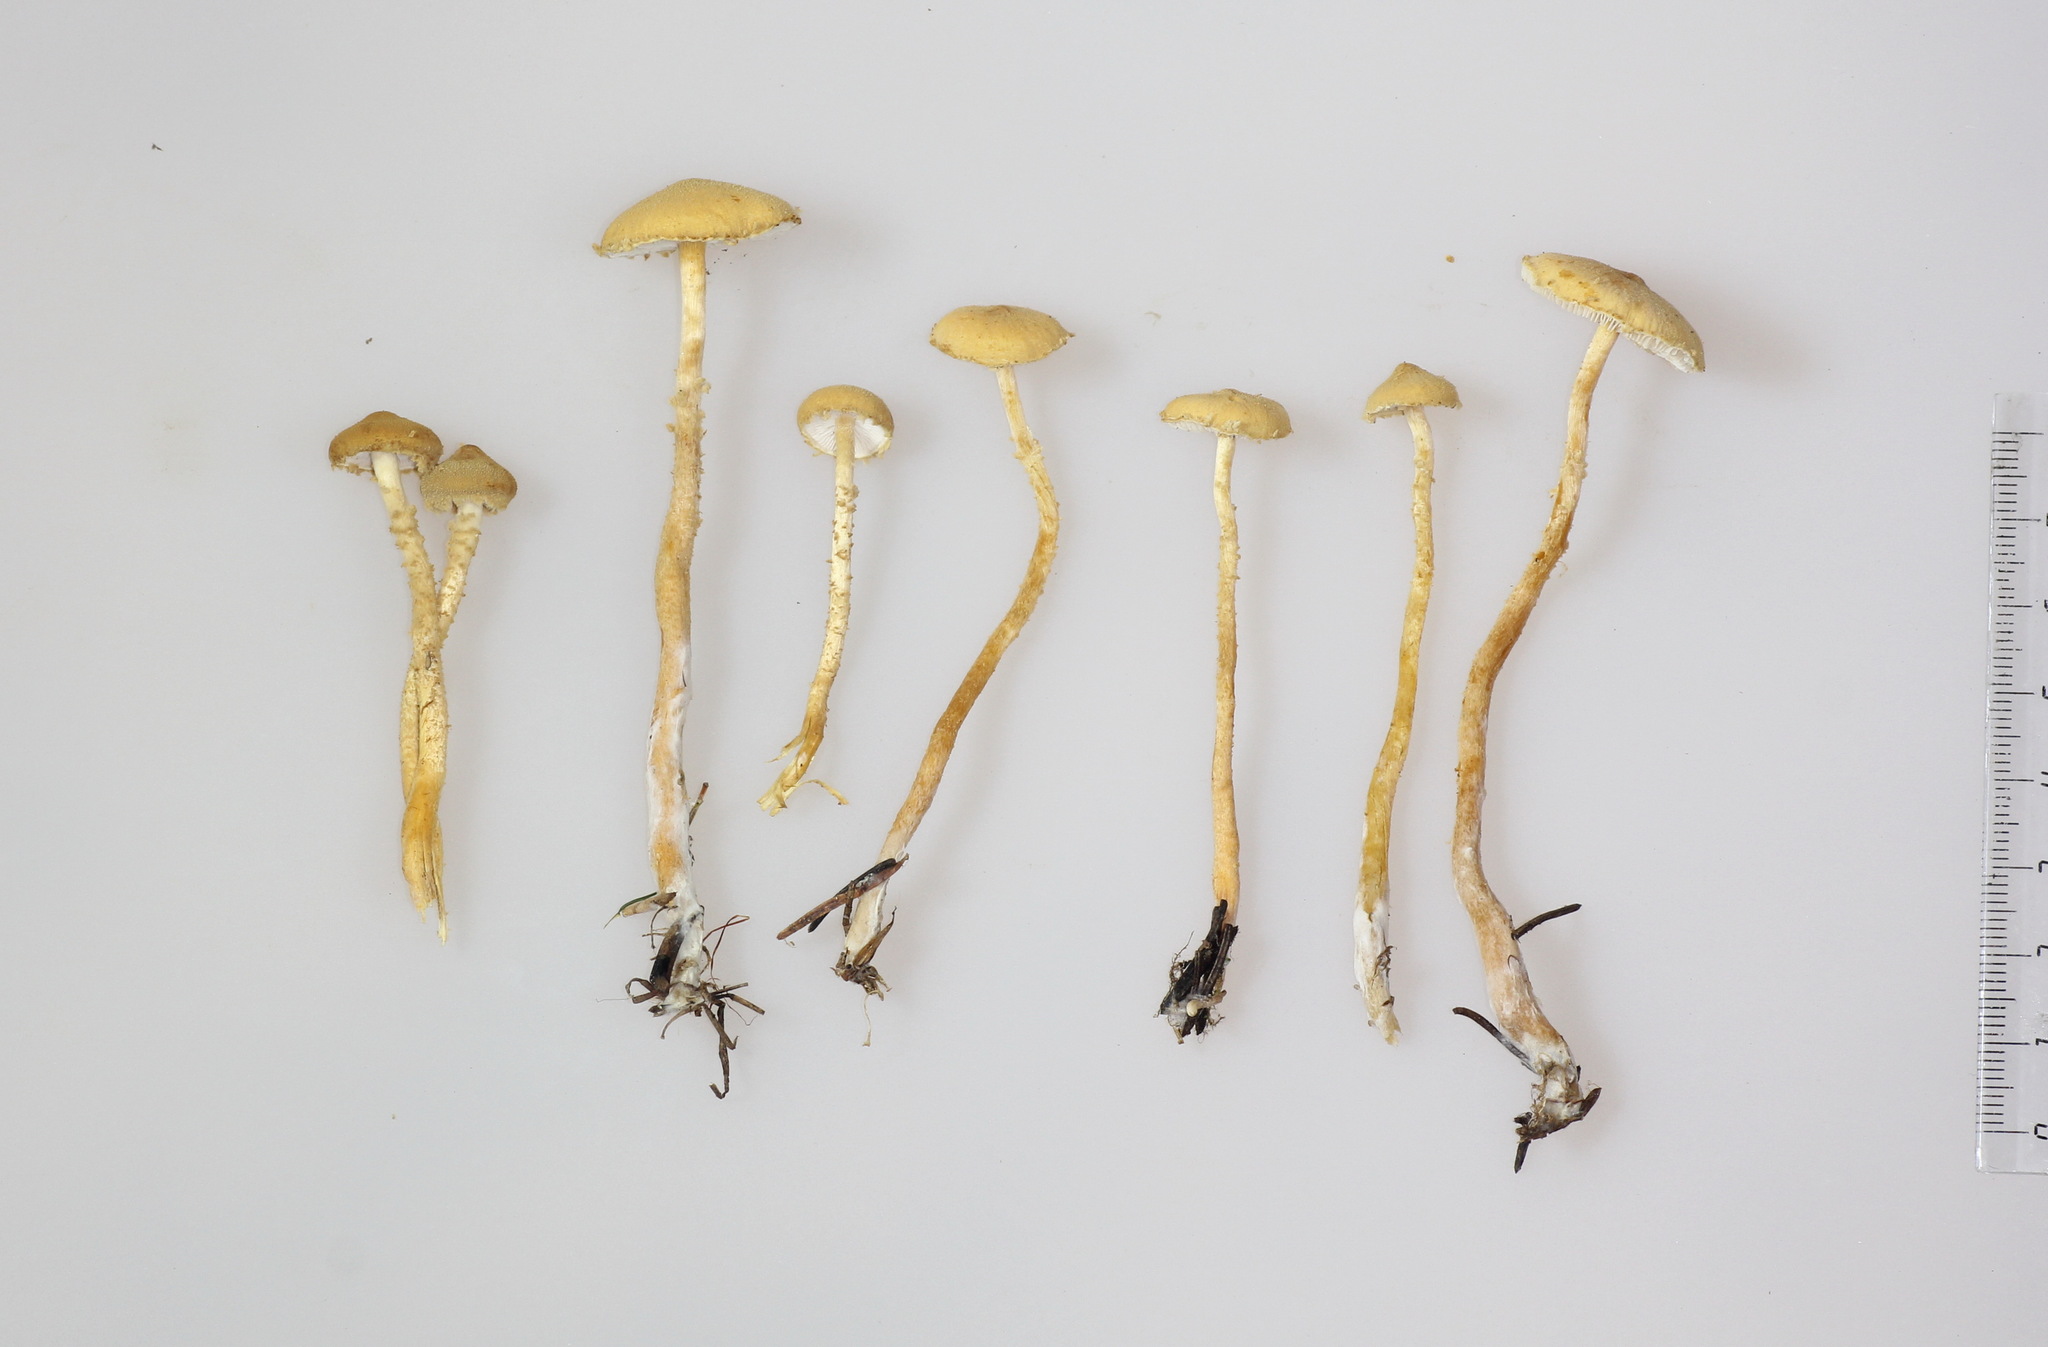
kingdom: Fungi
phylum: Basidiomycota
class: Agaricomycetes
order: Agaricales
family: Tricholomataceae
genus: Cystoderma
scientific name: Cystoderma amianthinum
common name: Earthy powdercap
